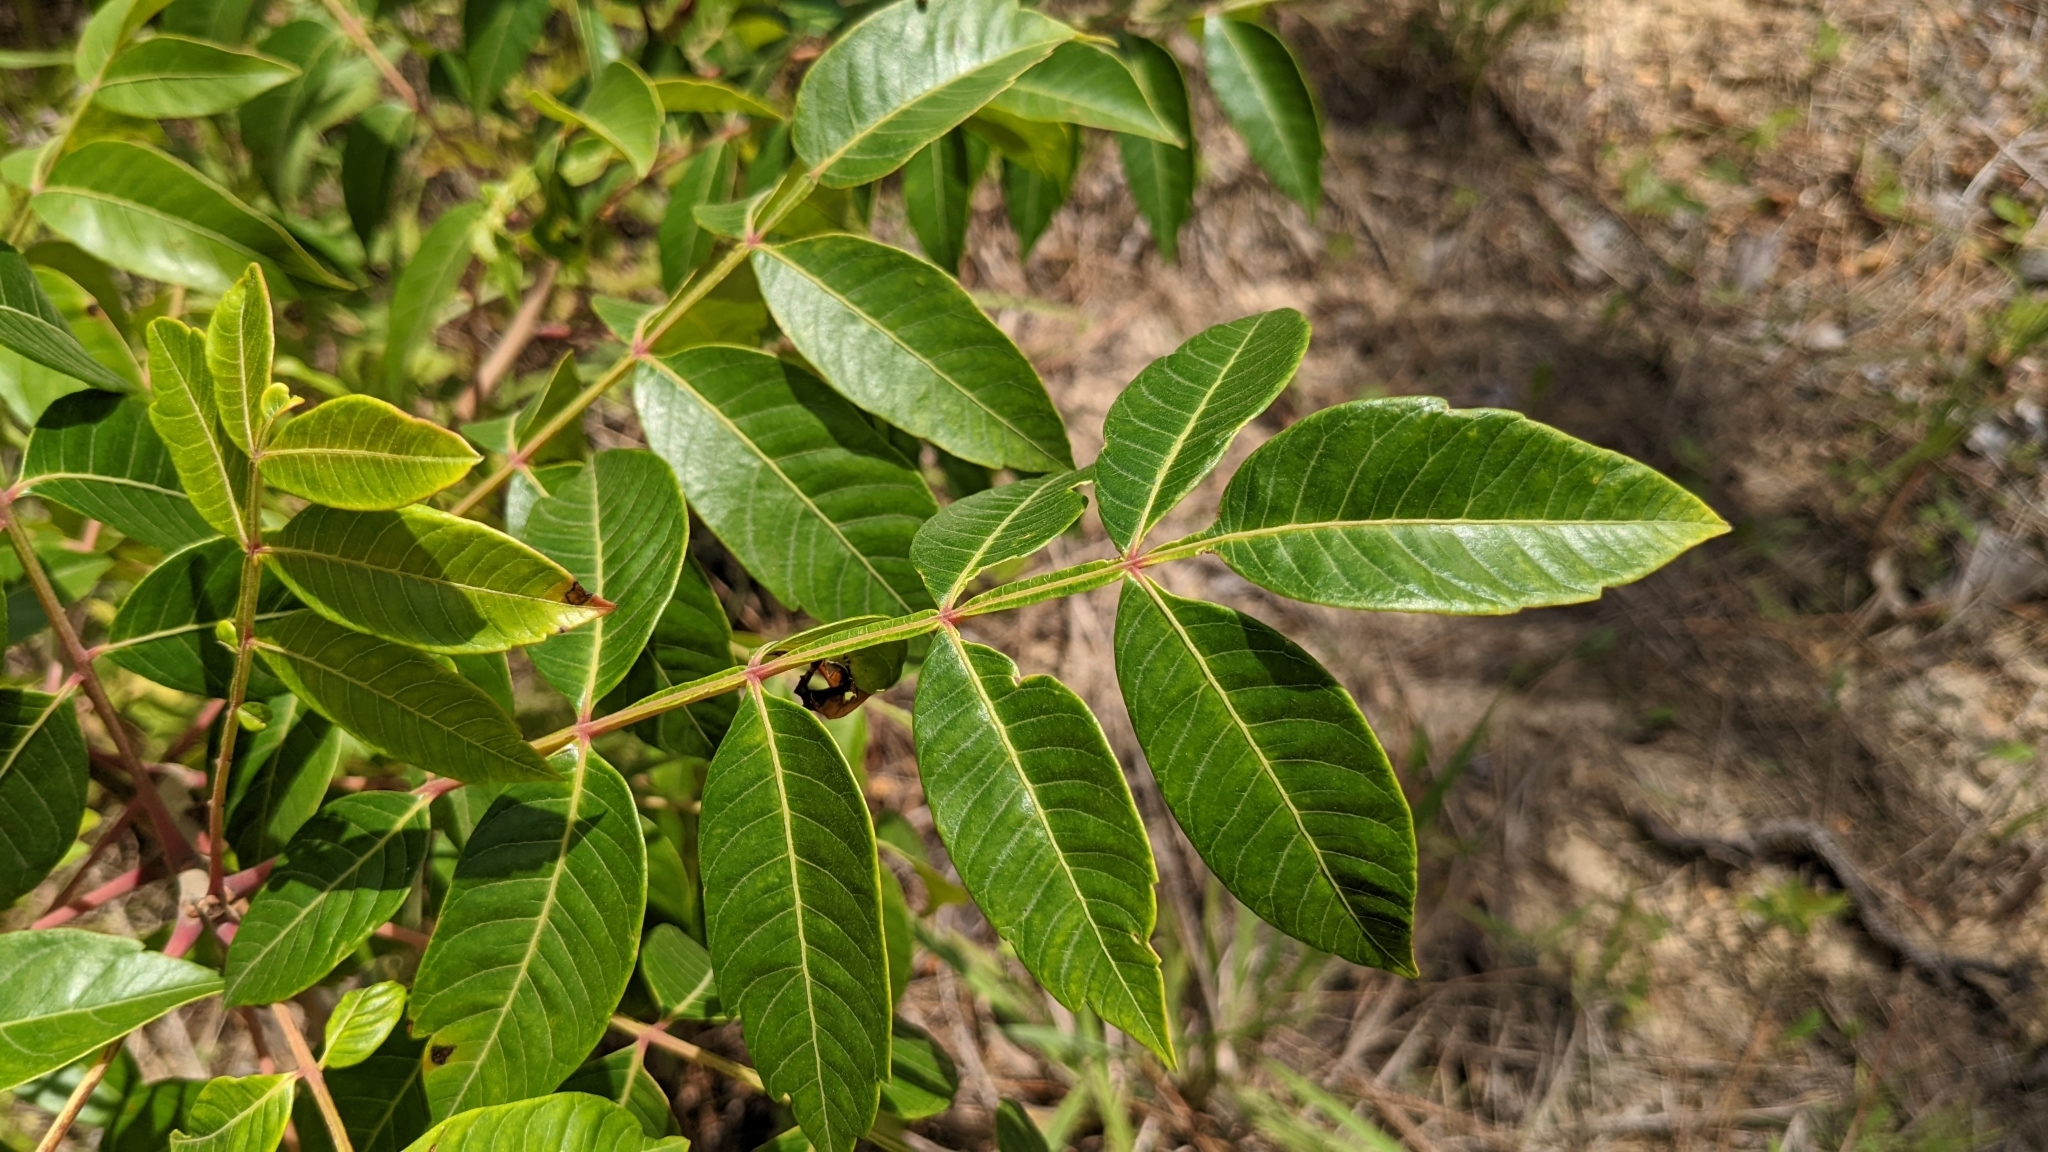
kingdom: Plantae
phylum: Tracheophyta
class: Magnoliopsida
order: Sapindales
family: Anacardiaceae
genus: Rhus
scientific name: Rhus copallina
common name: Shining sumac
